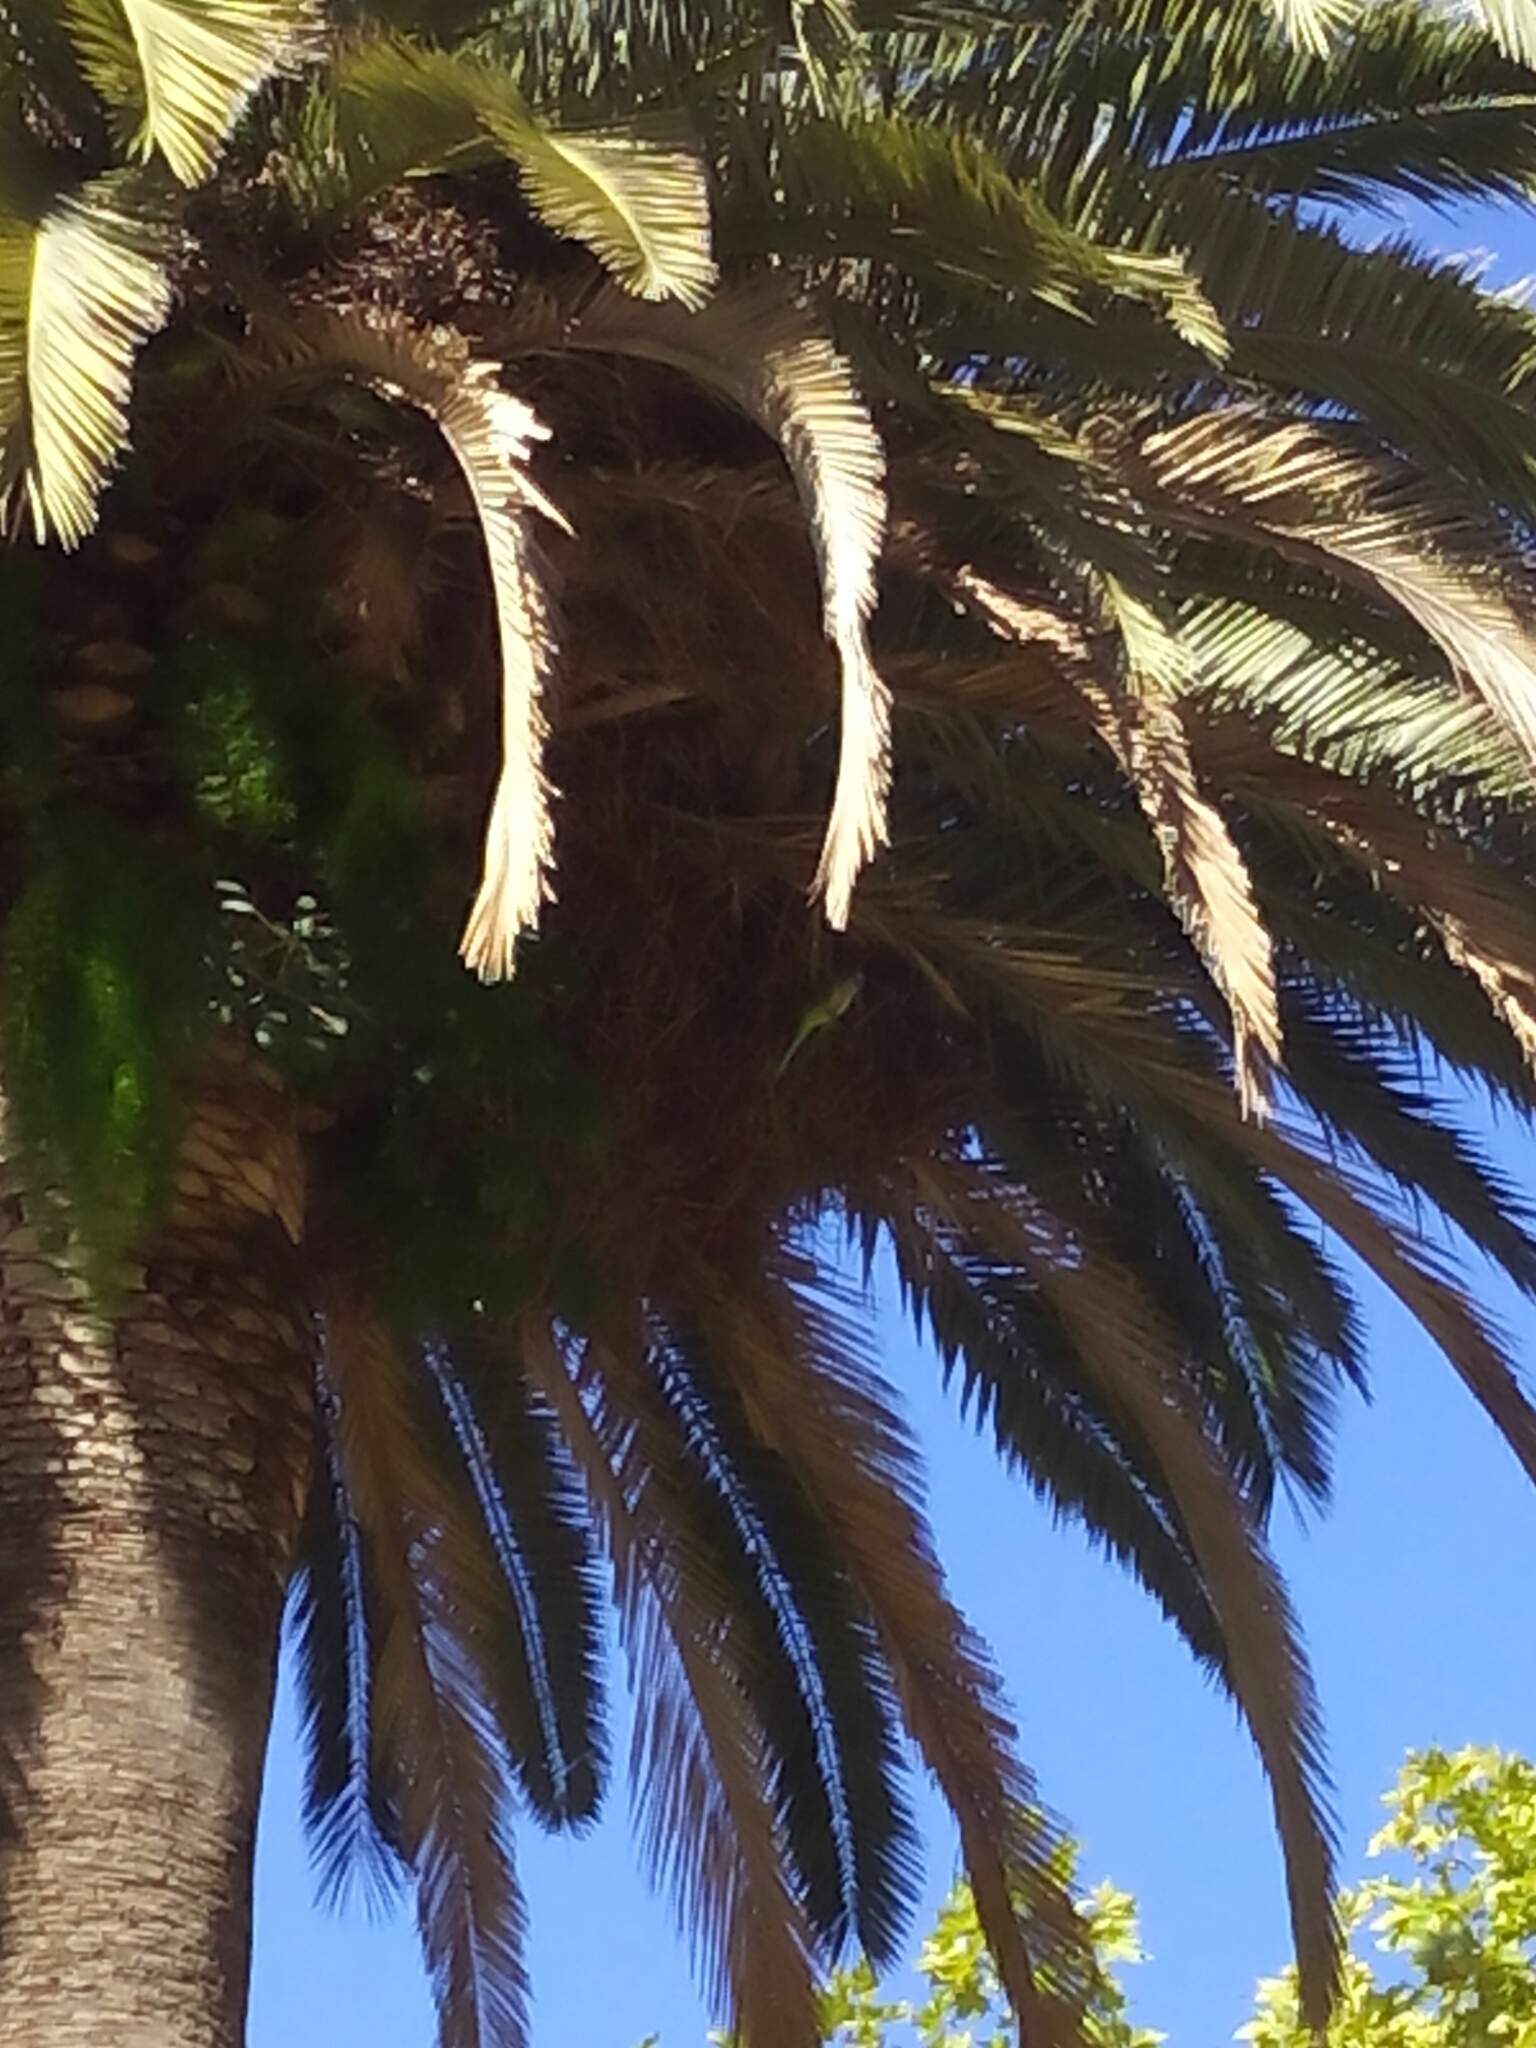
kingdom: Animalia
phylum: Chordata
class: Aves
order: Psittaciformes
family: Psittacidae
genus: Myiopsitta
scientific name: Myiopsitta monachus
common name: Monk parakeet
